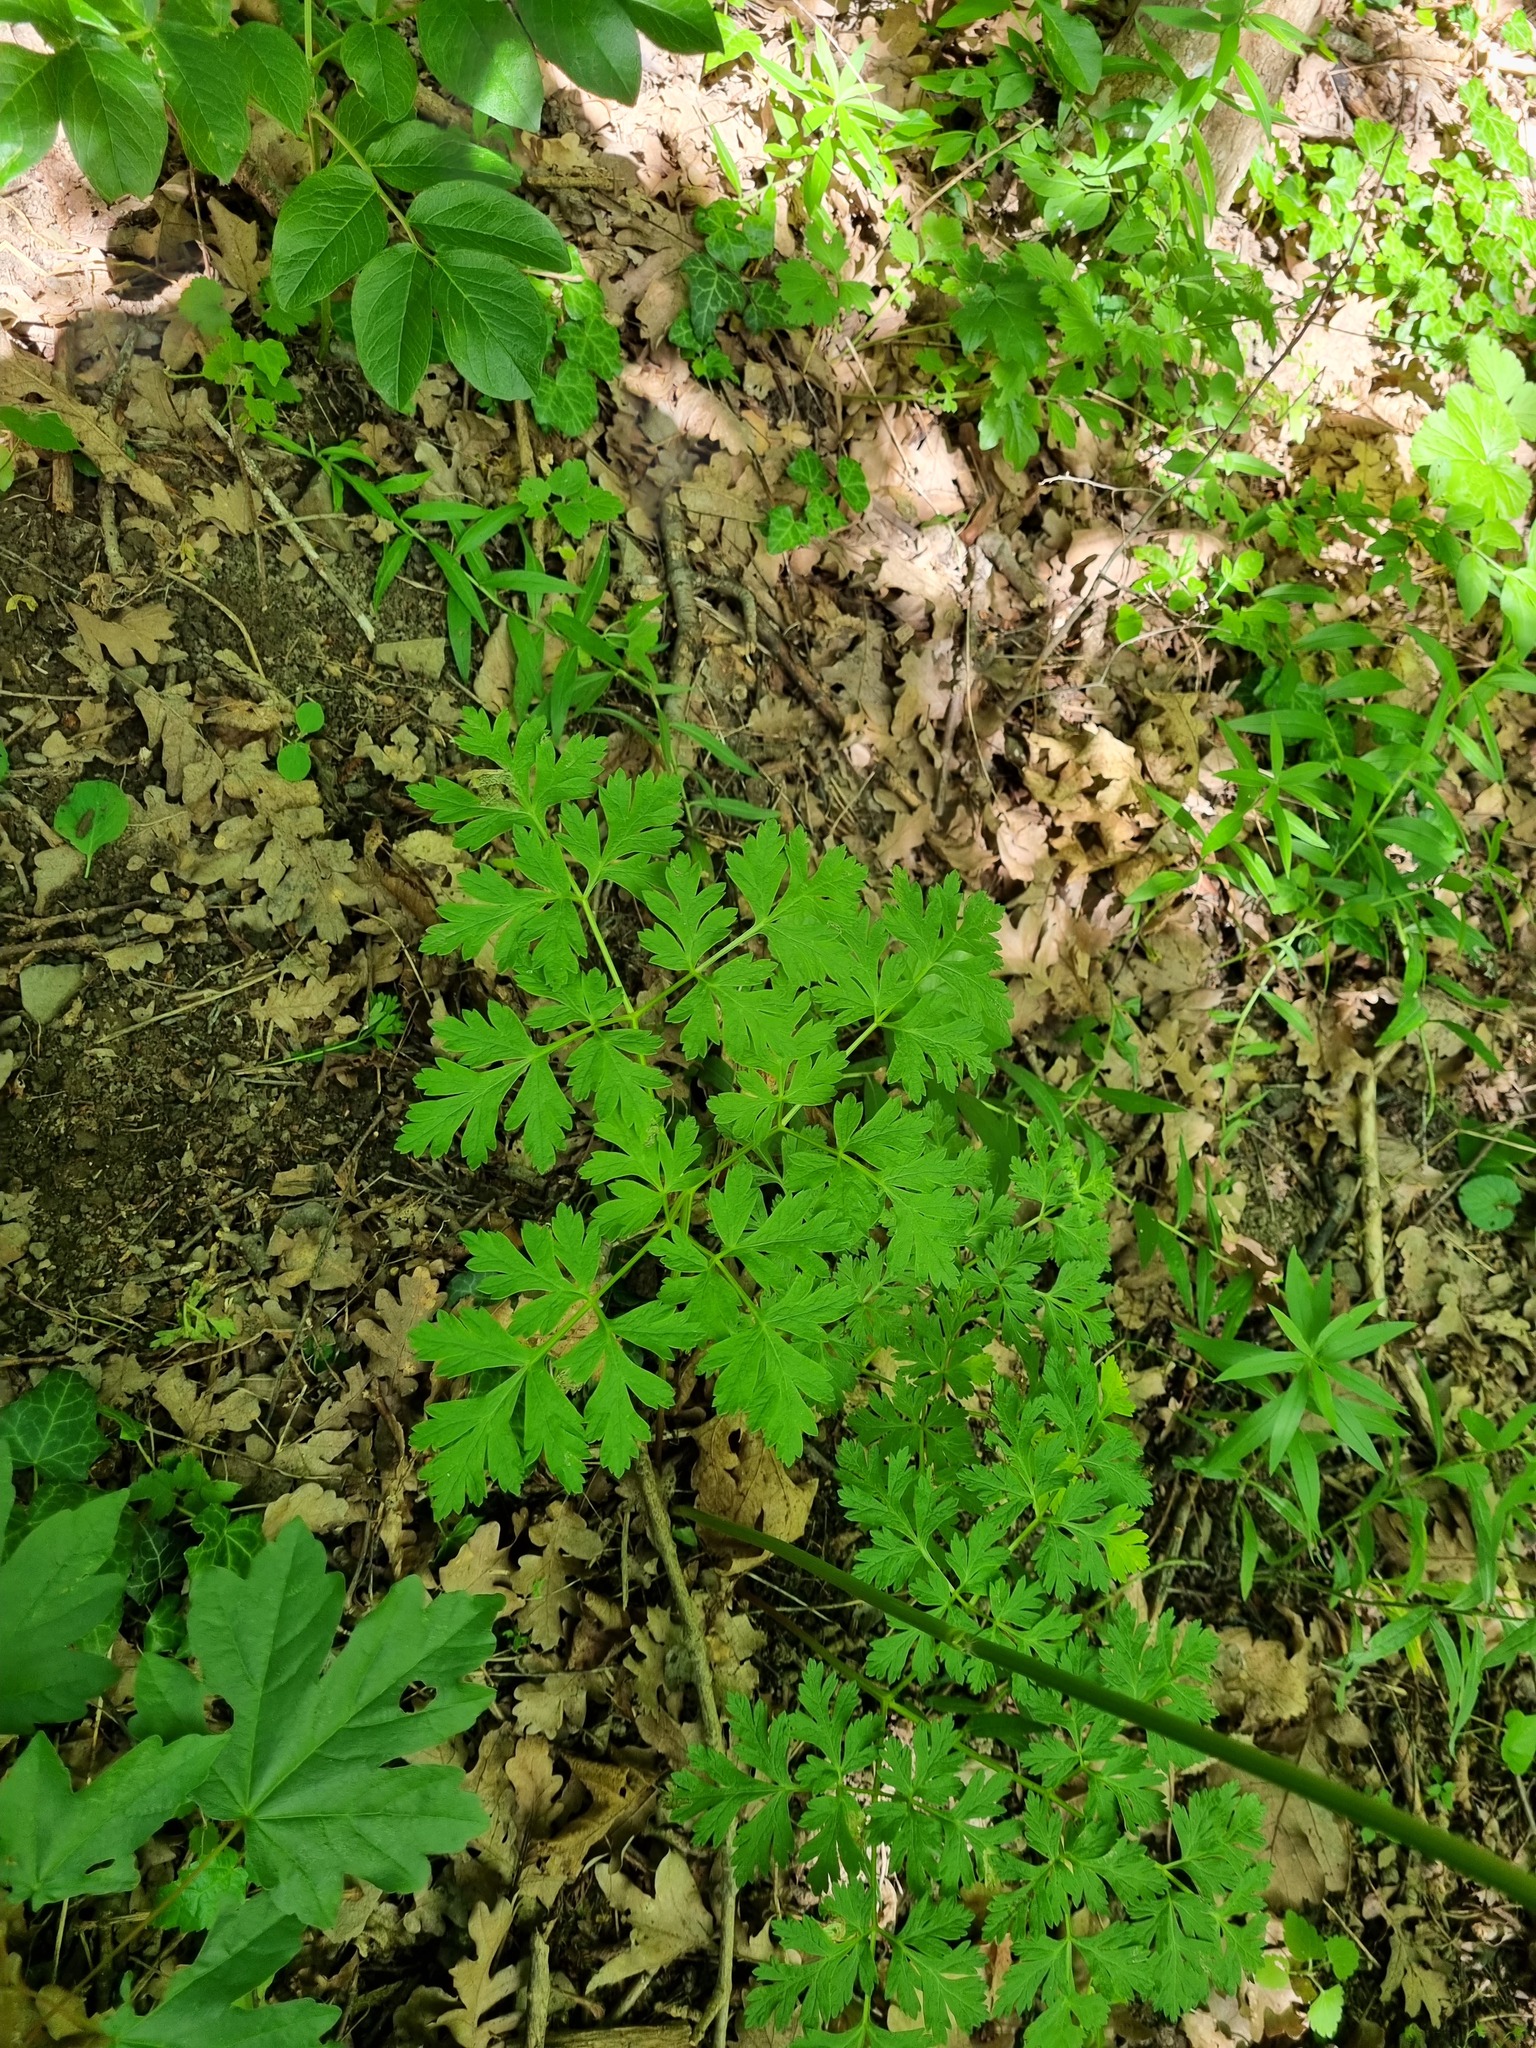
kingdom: Plantae
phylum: Tracheophyta
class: Magnoliopsida
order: Apiales
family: Apiaceae
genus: Physospermum
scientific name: Physospermum cornubiense
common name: Bladderseed
